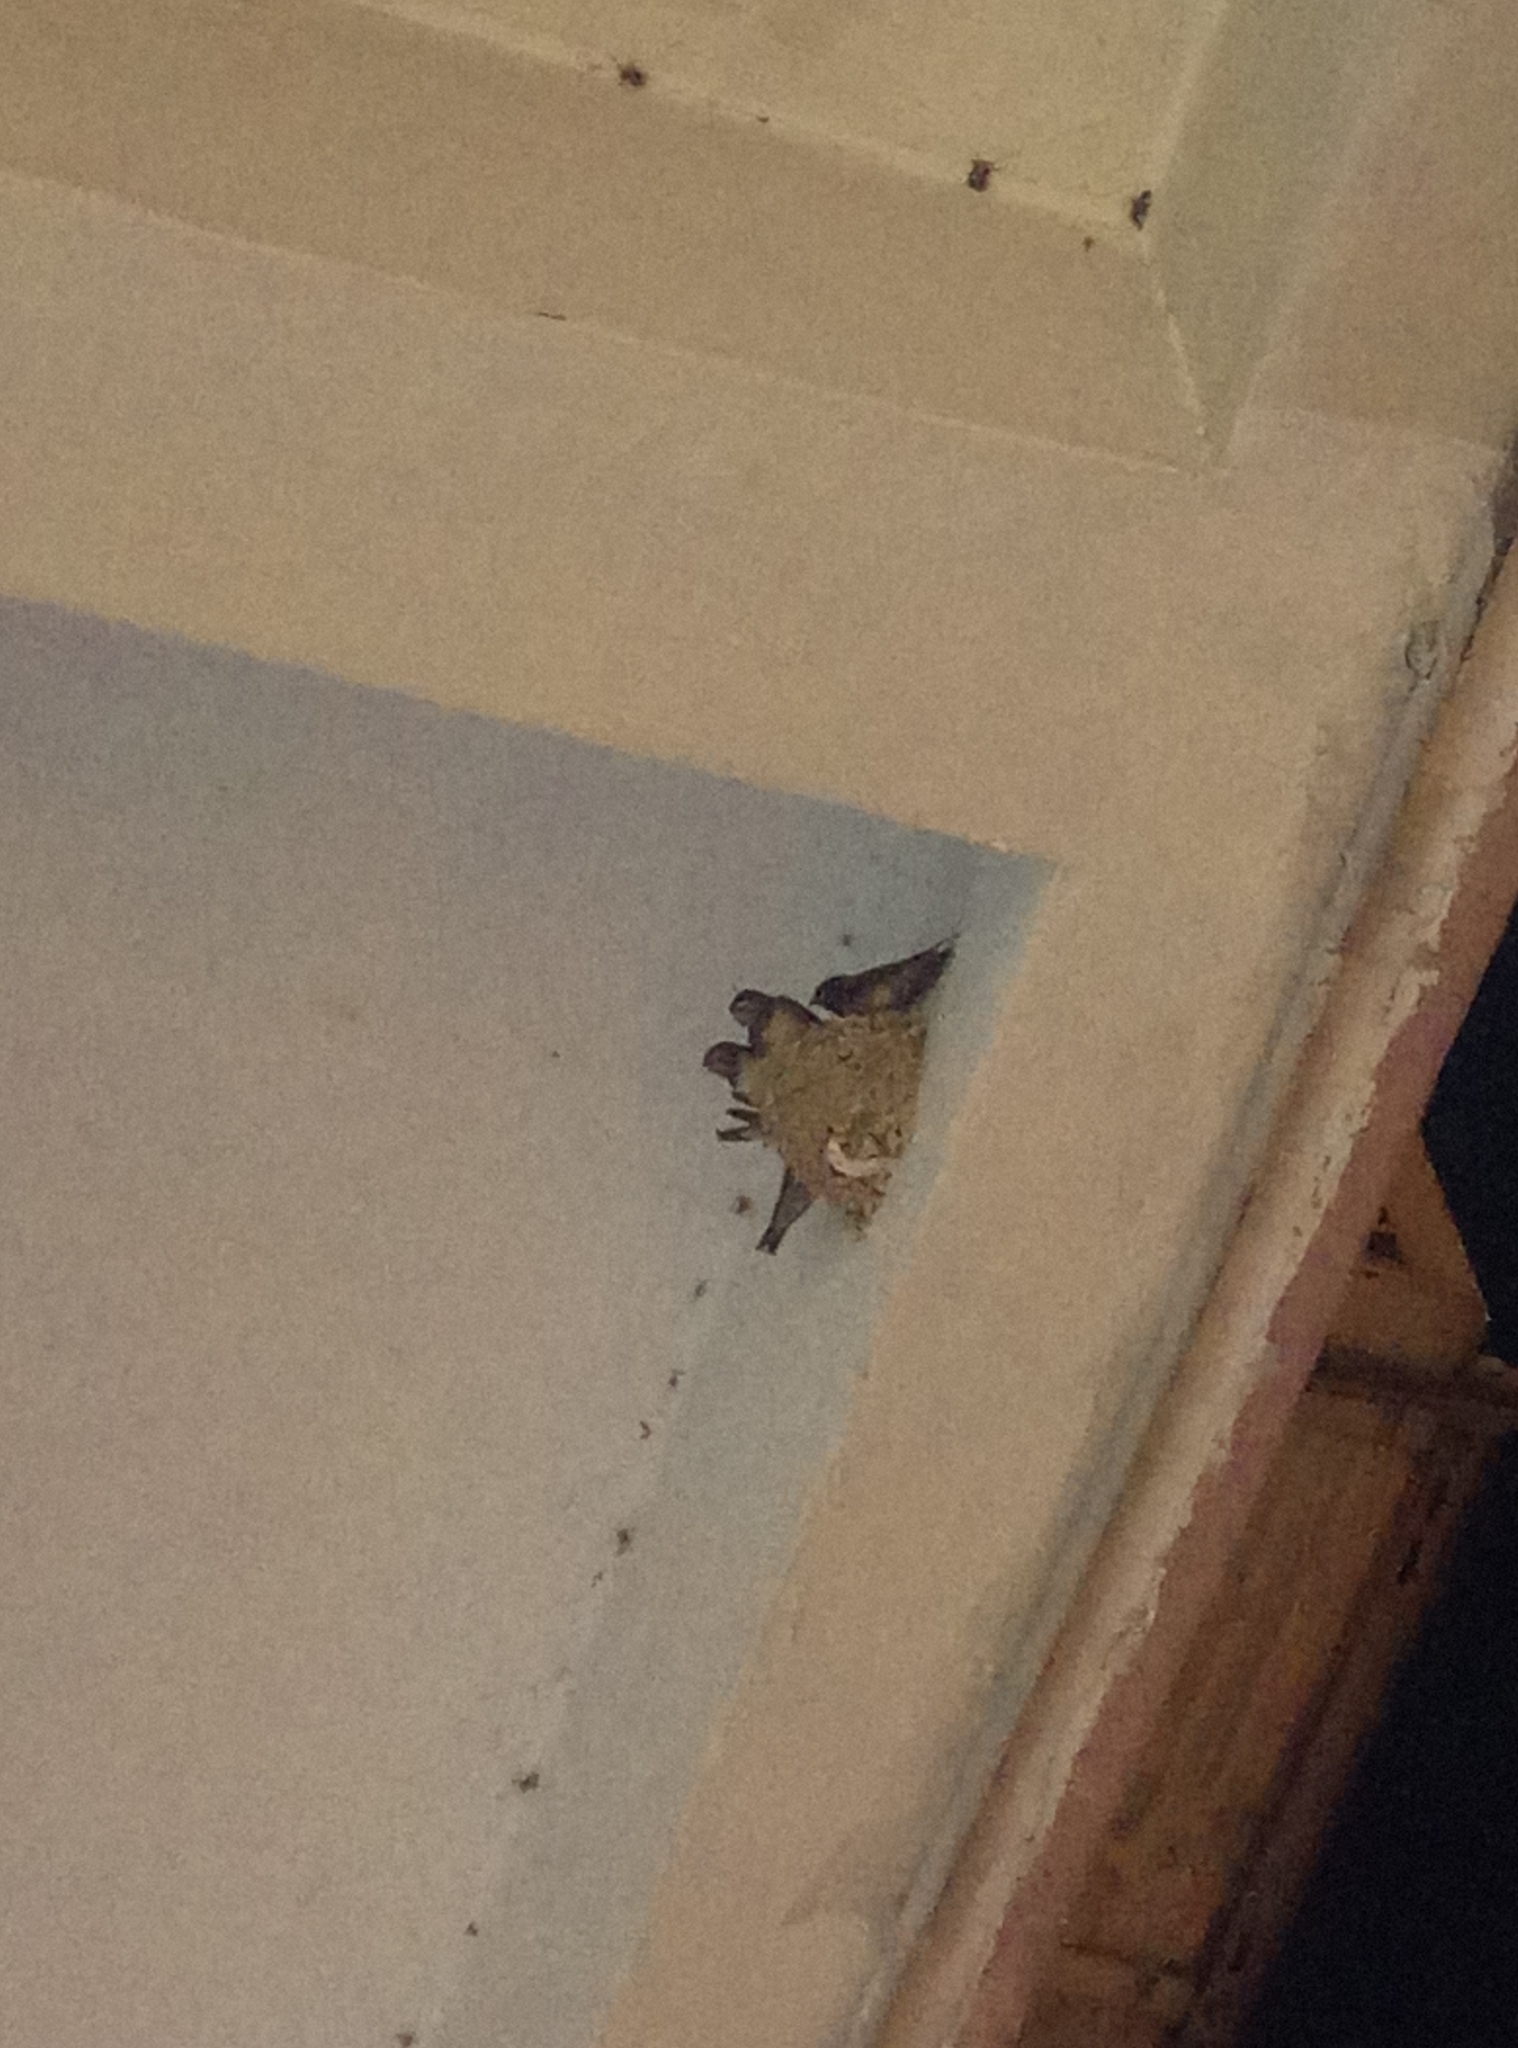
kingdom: Animalia
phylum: Chordata
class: Aves
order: Passeriformes
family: Hirundinidae
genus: Hirundo
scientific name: Hirundo rustica
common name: Barn swallow
